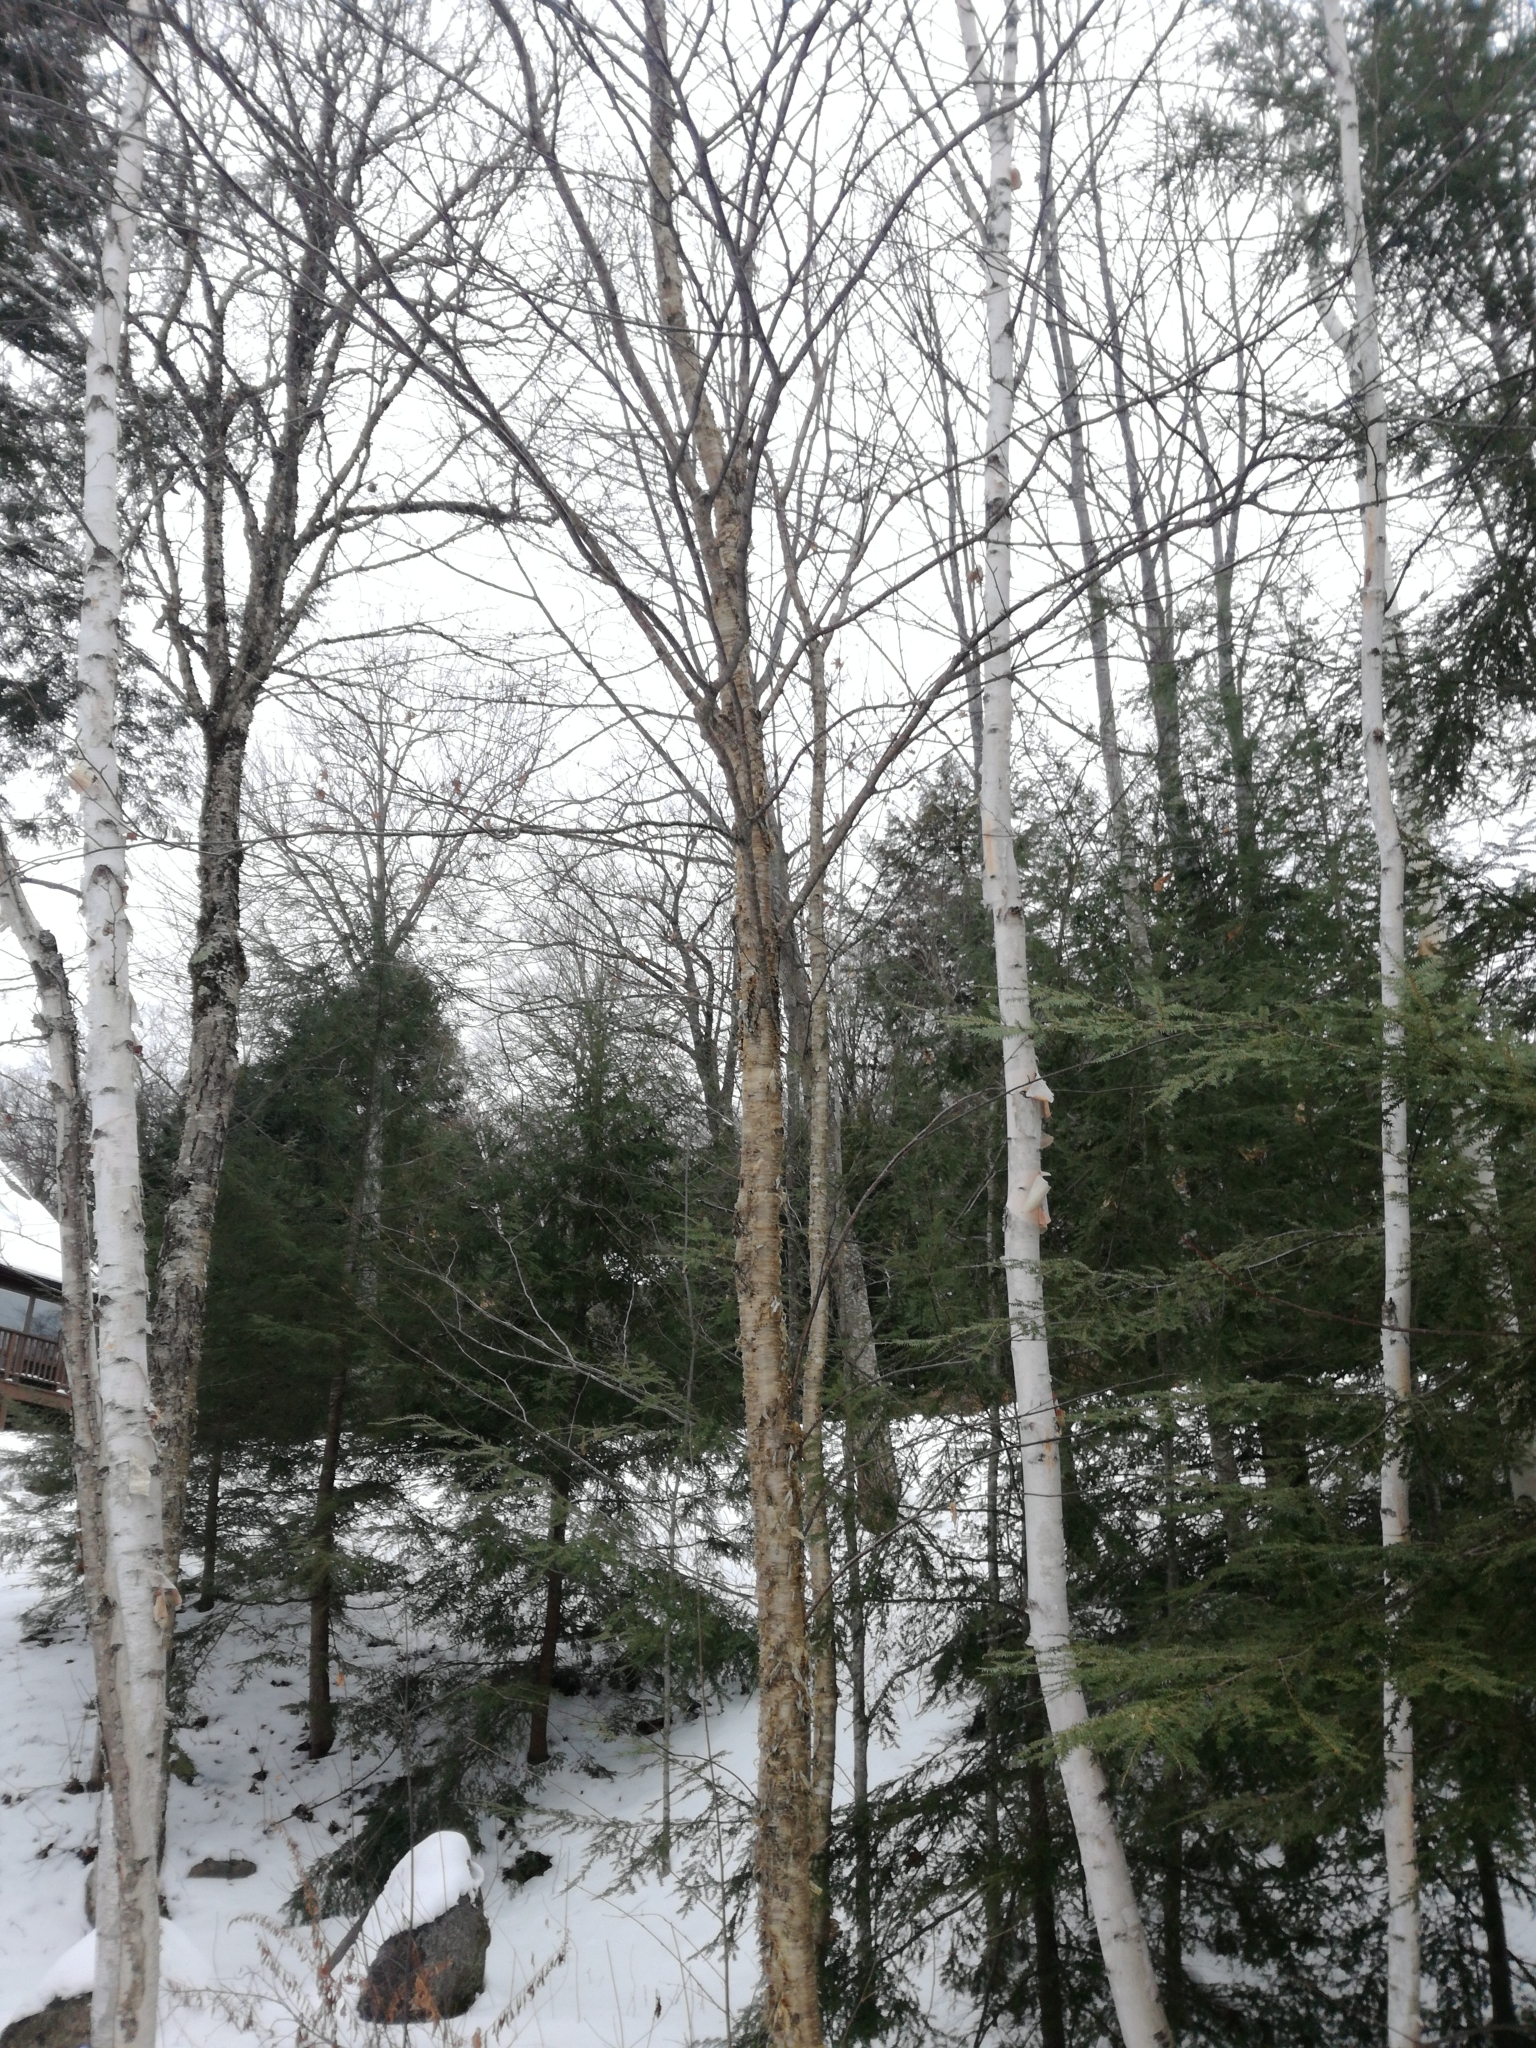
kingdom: Plantae
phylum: Tracheophyta
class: Magnoliopsida
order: Fagales
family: Betulaceae
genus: Betula
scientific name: Betula alleghaniensis
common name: Yellow birch
